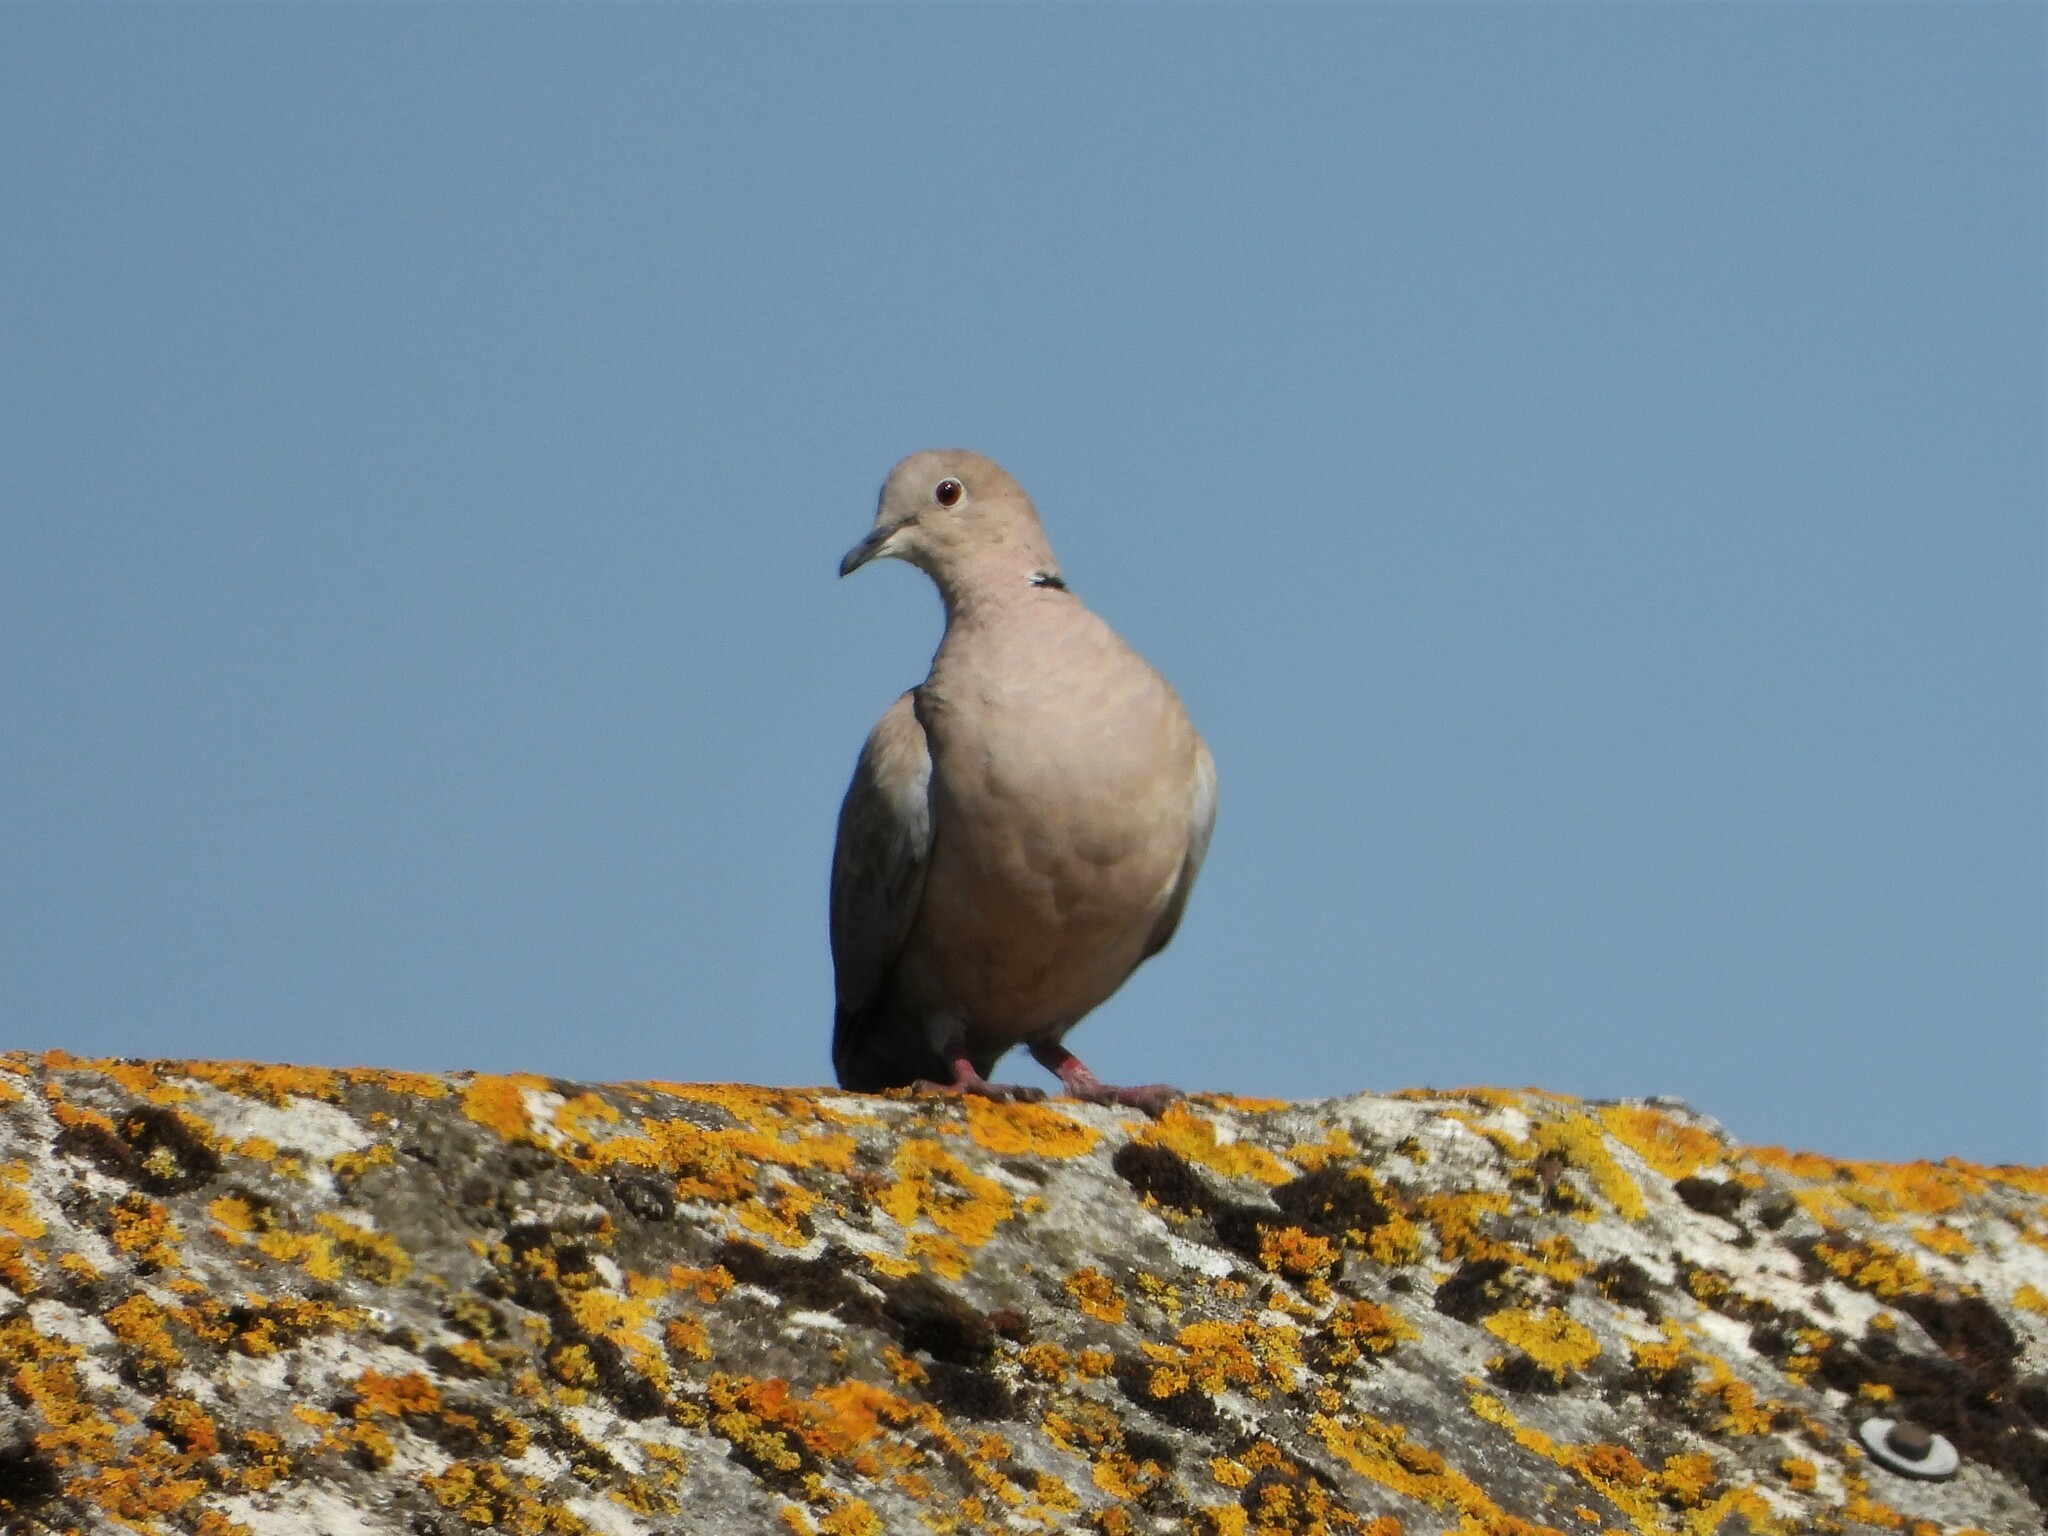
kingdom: Animalia
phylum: Chordata
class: Aves
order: Columbiformes
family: Columbidae
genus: Streptopelia
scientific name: Streptopelia decaocto
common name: Eurasian collared dove
